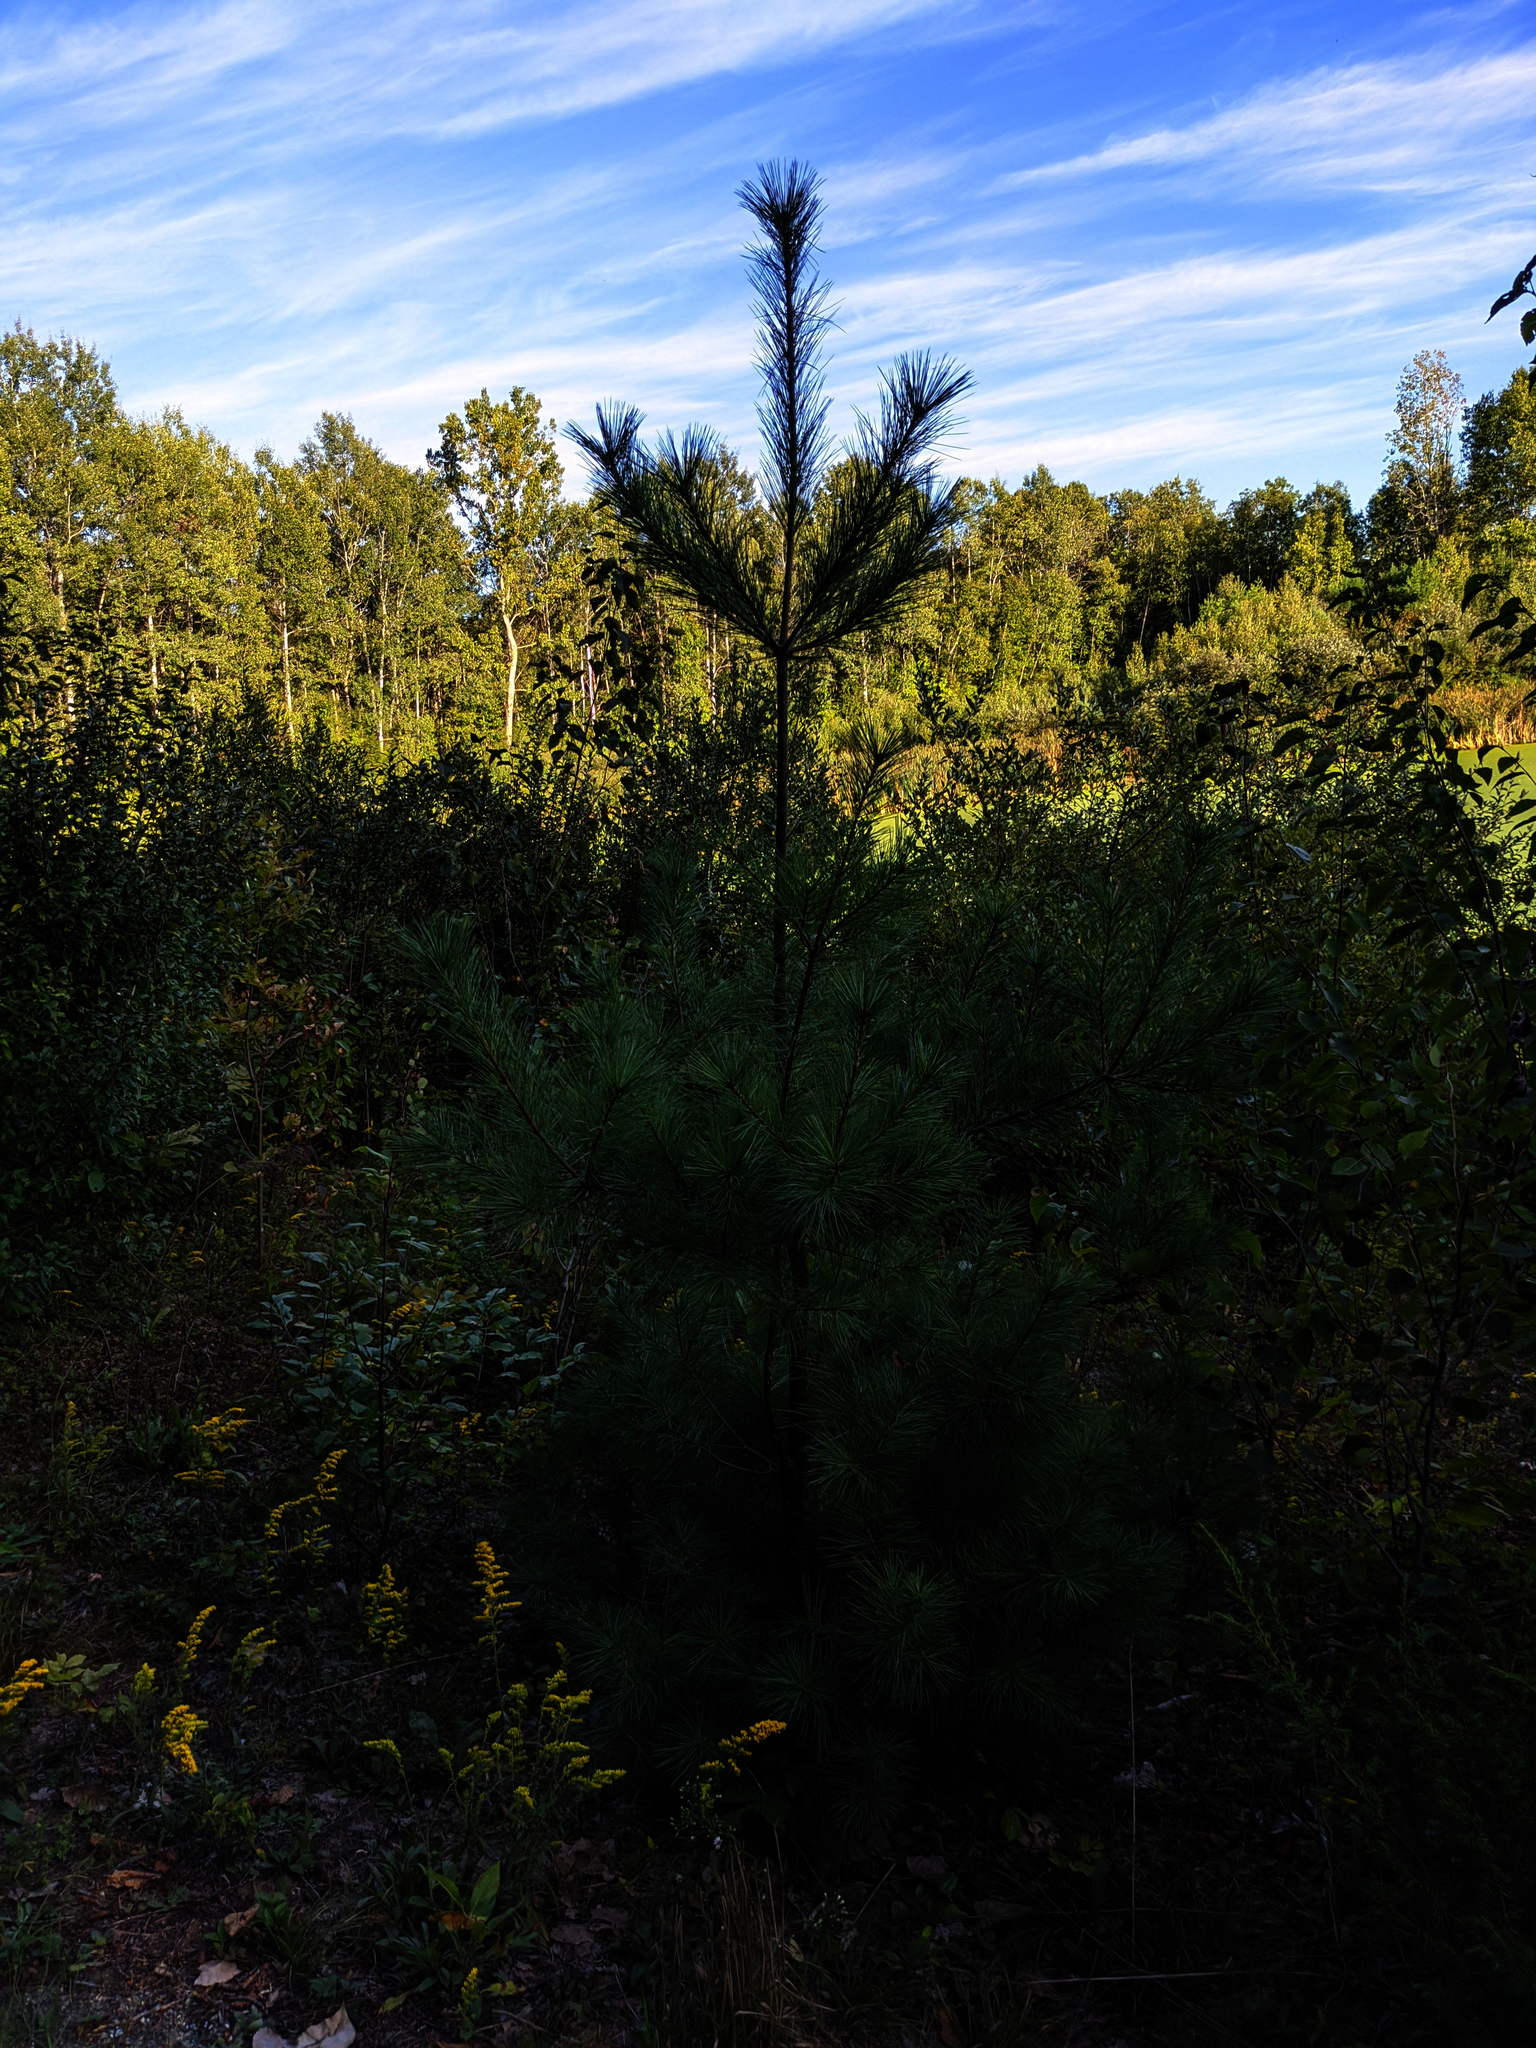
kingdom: Plantae
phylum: Tracheophyta
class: Pinopsida
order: Pinales
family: Pinaceae
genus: Pinus
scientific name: Pinus strobus
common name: Weymouth pine
